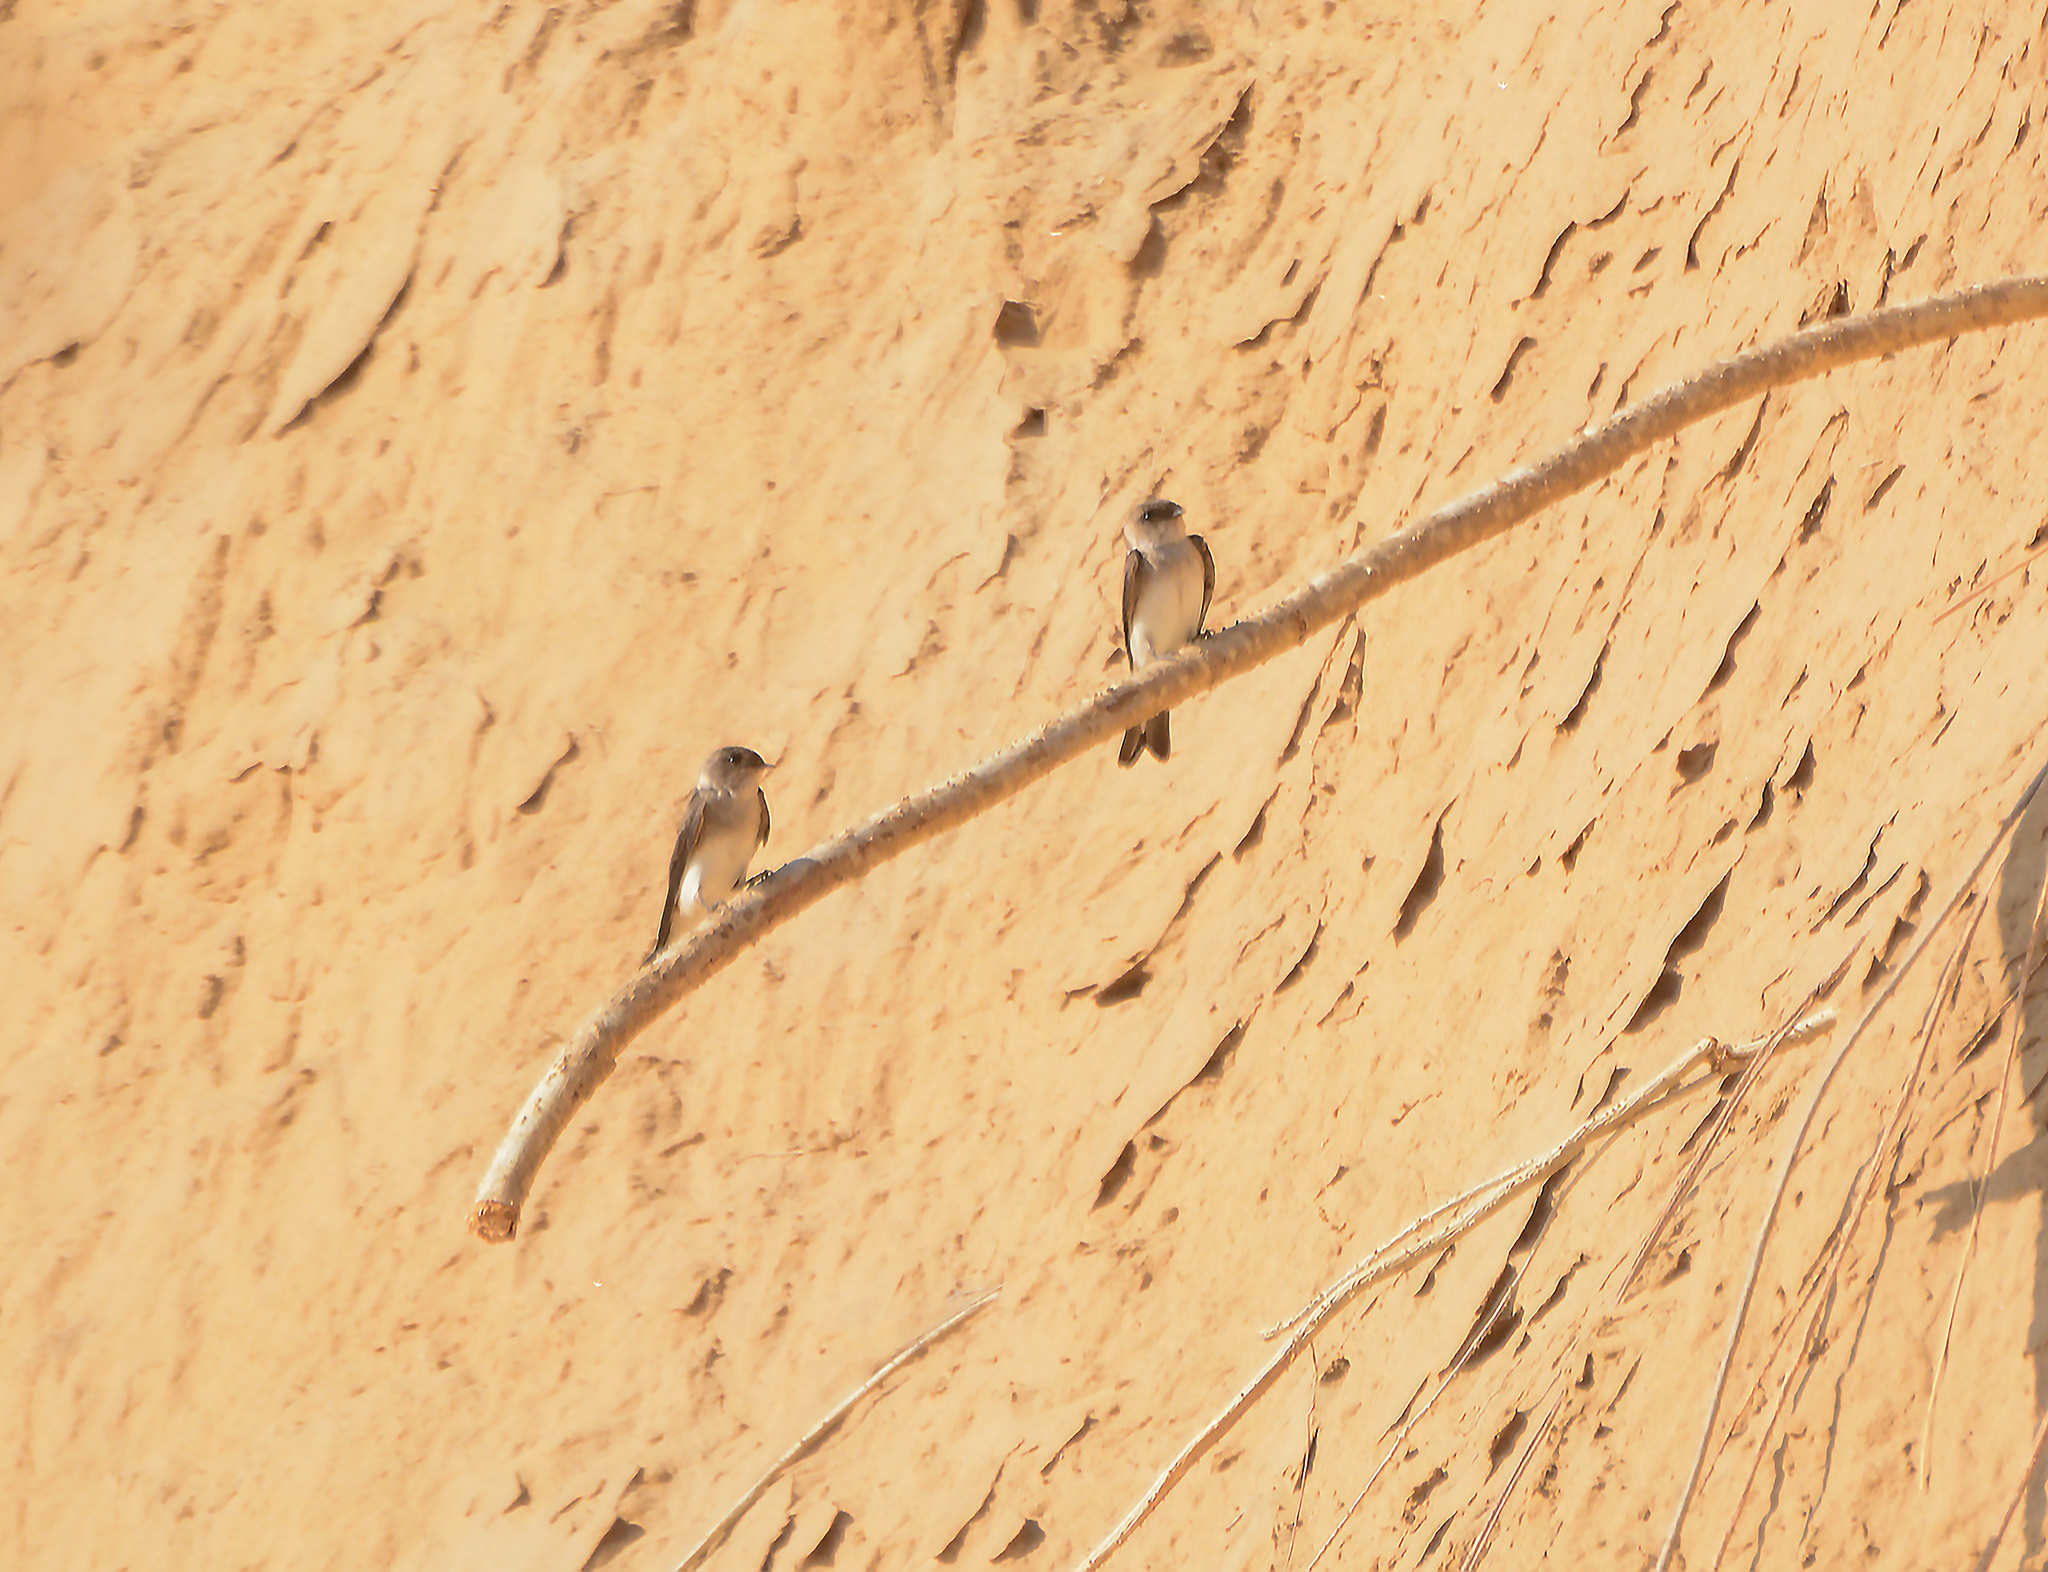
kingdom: Animalia
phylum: Chordata
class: Aves
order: Passeriformes
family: Hirundinidae
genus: Riparia
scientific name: Riparia chinensis
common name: Gray-throated martin
